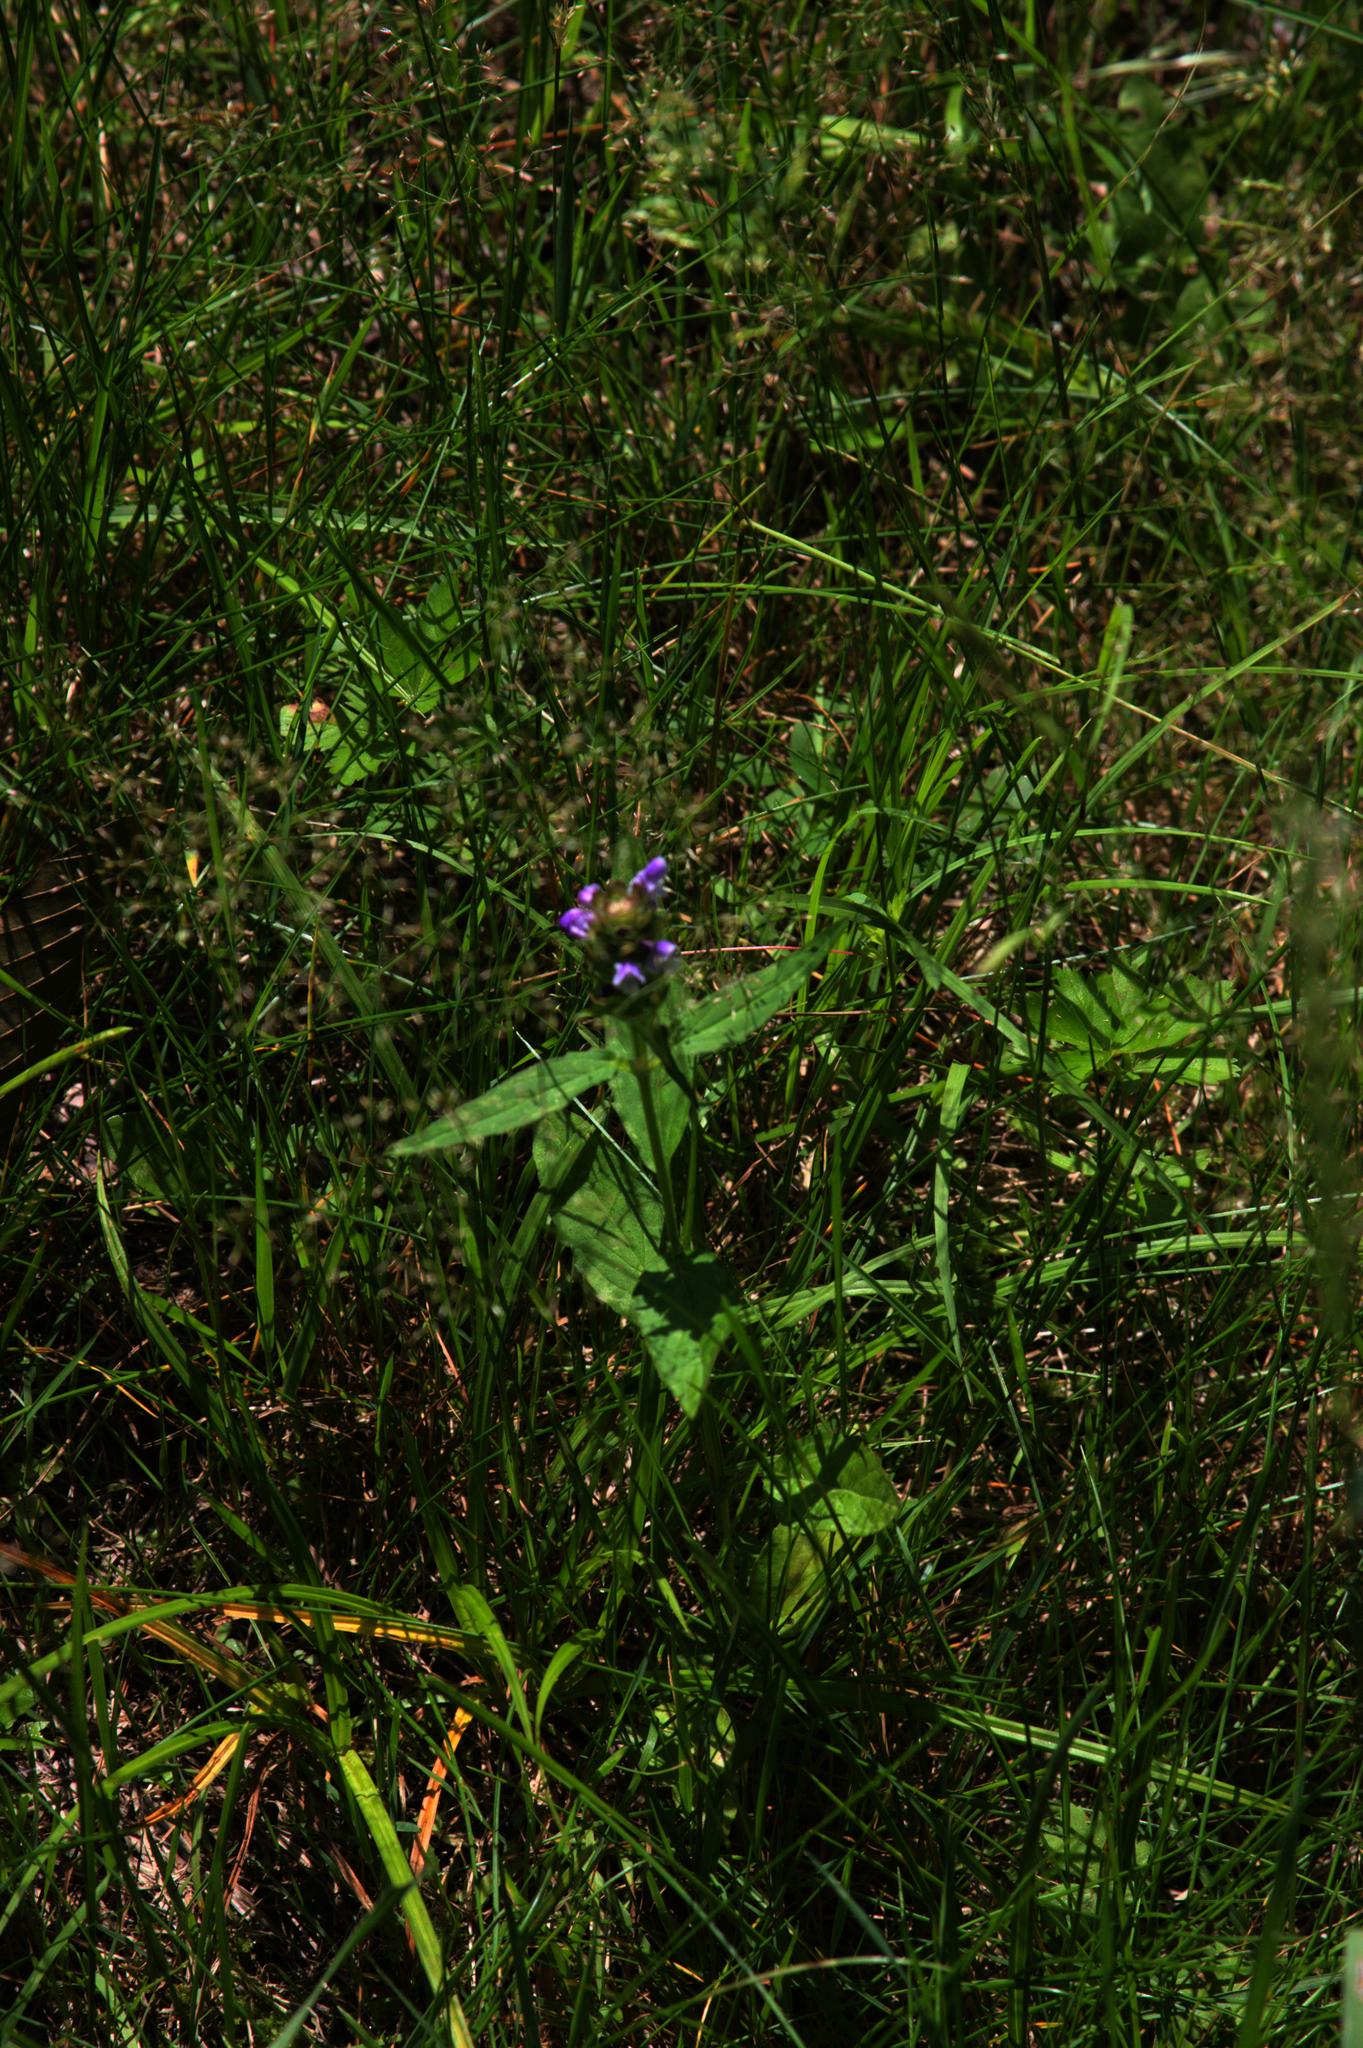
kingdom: Plantae
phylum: Tracheophyta
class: Magnoliopsida
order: Lamiales
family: Lamiaceae
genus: Prunella
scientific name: Prunella vulgaris
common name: Heal-all
